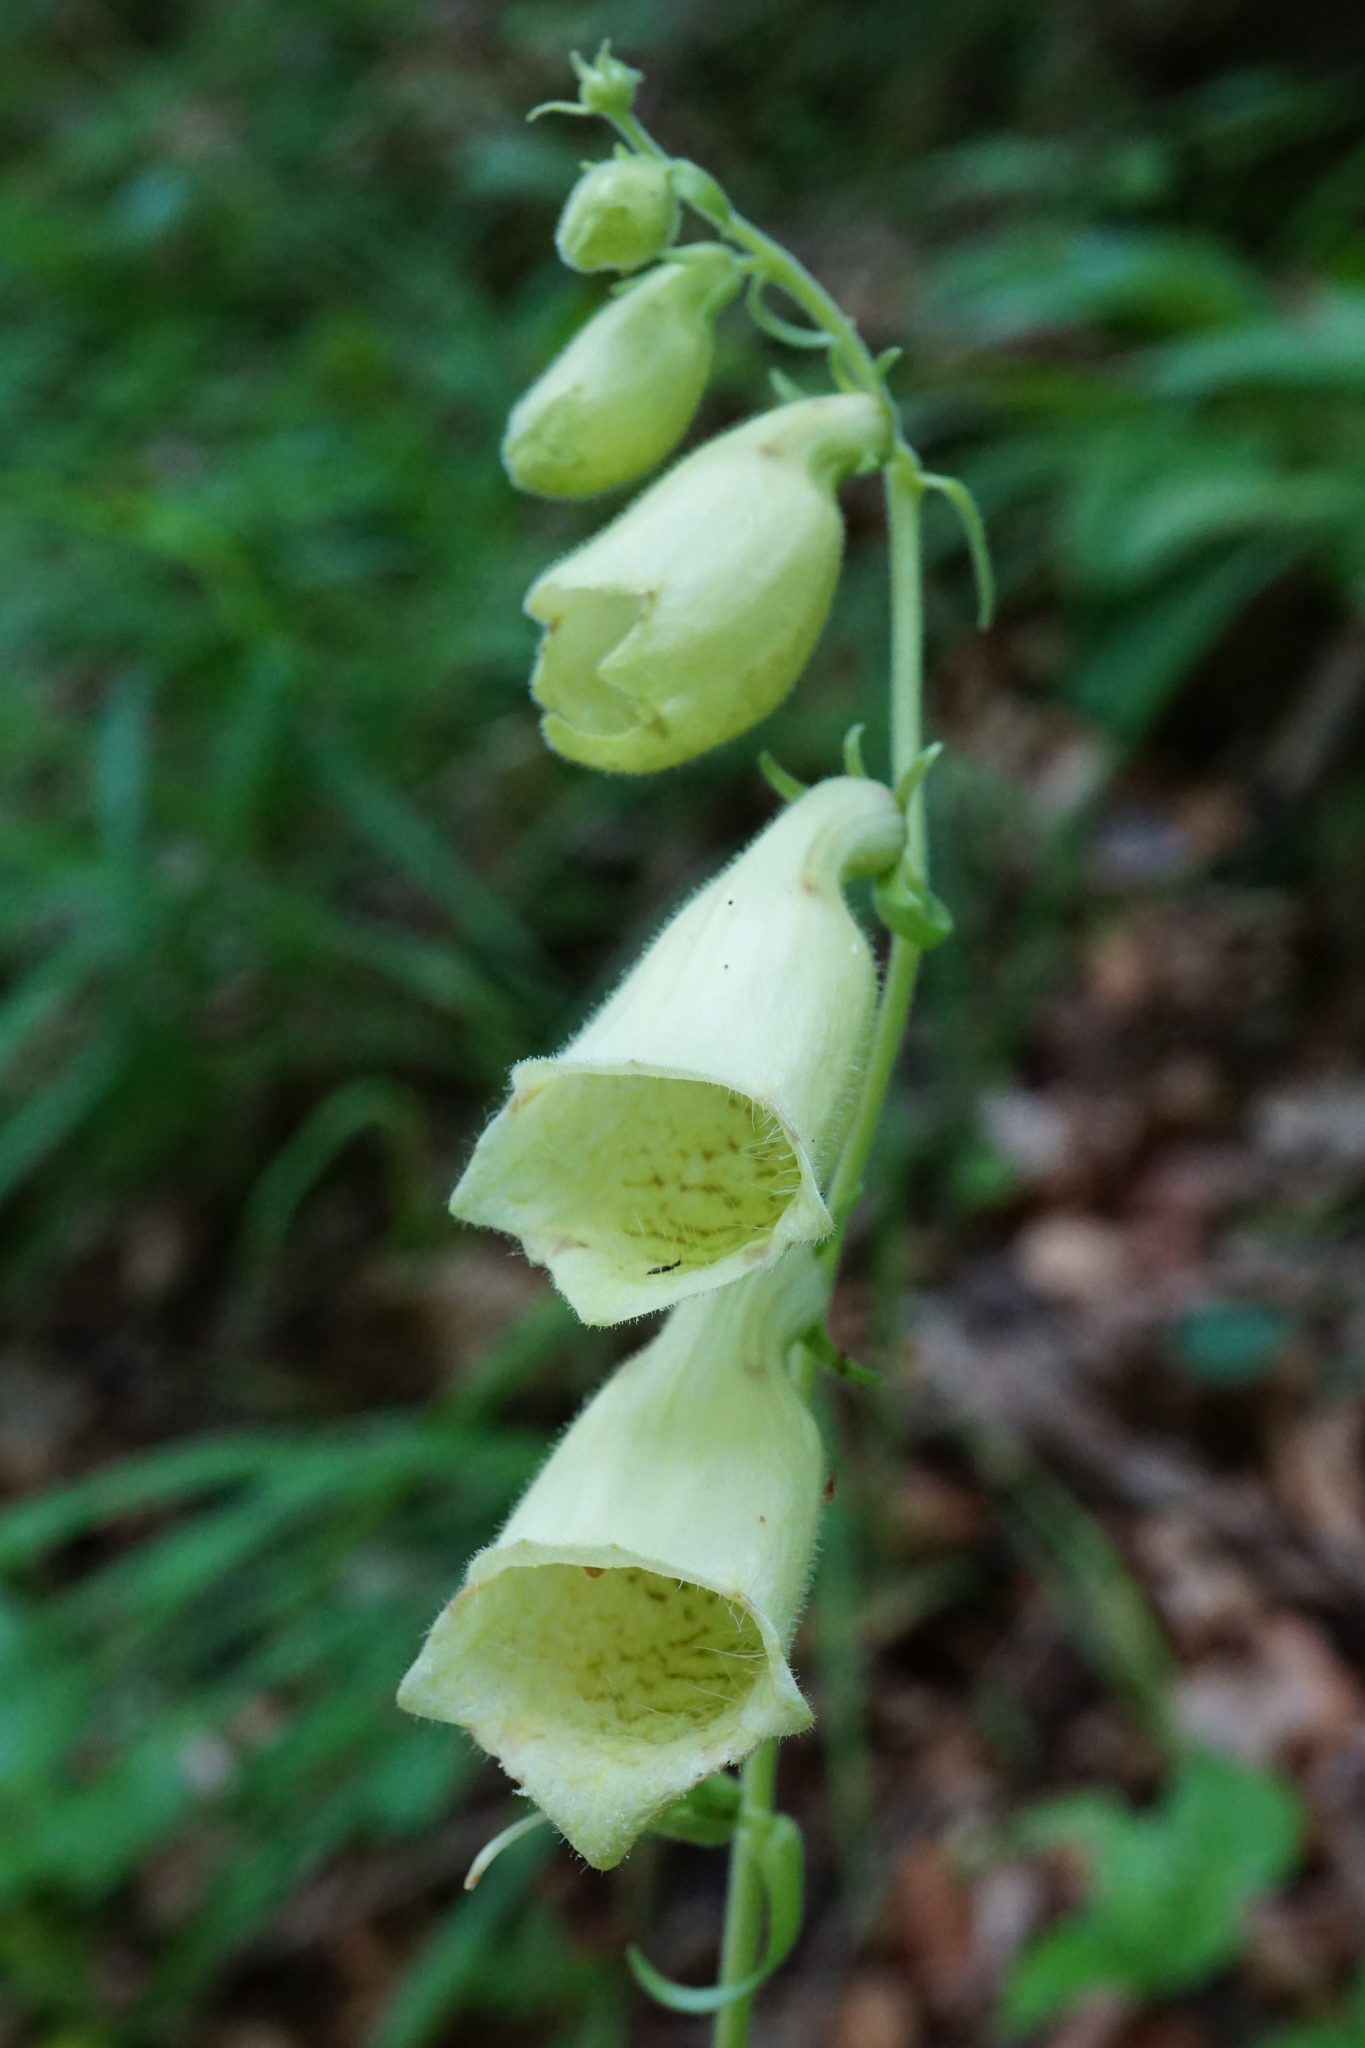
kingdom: Plantae
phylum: Tracheophyta
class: Magnoliopsida
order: Lamiales
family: Plantaginaceae
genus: Digitalis
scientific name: Digitalis grandiflora
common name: Yellow foxglove
